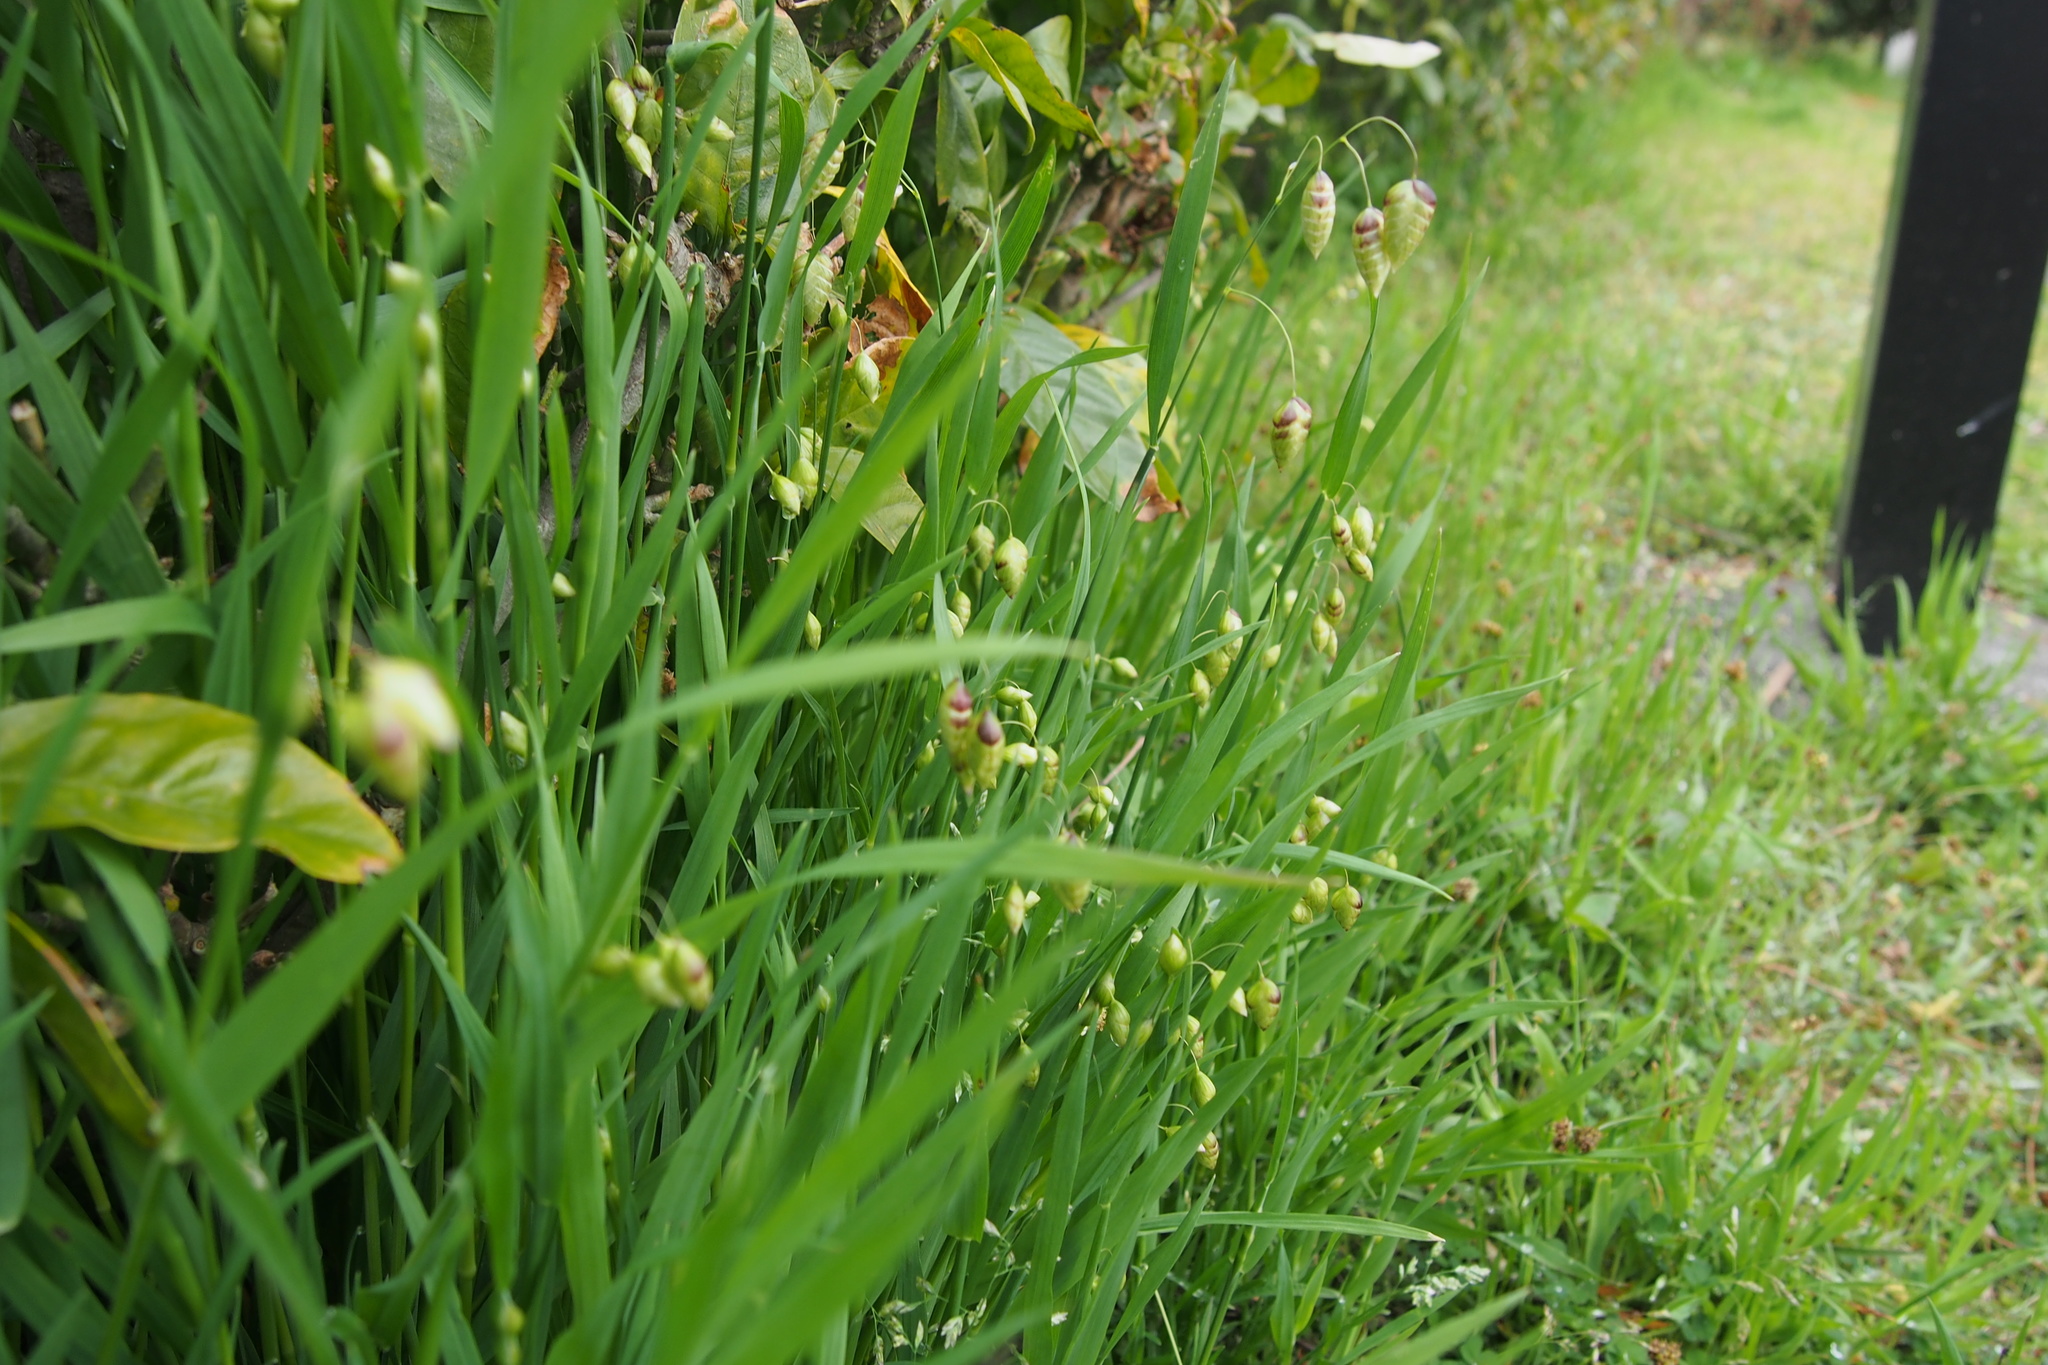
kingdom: Plantae
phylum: Tracheophyta
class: Liliopsida
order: Poales
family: Poaceae
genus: Briza
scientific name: Briza maxima
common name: Big quakinggrass
